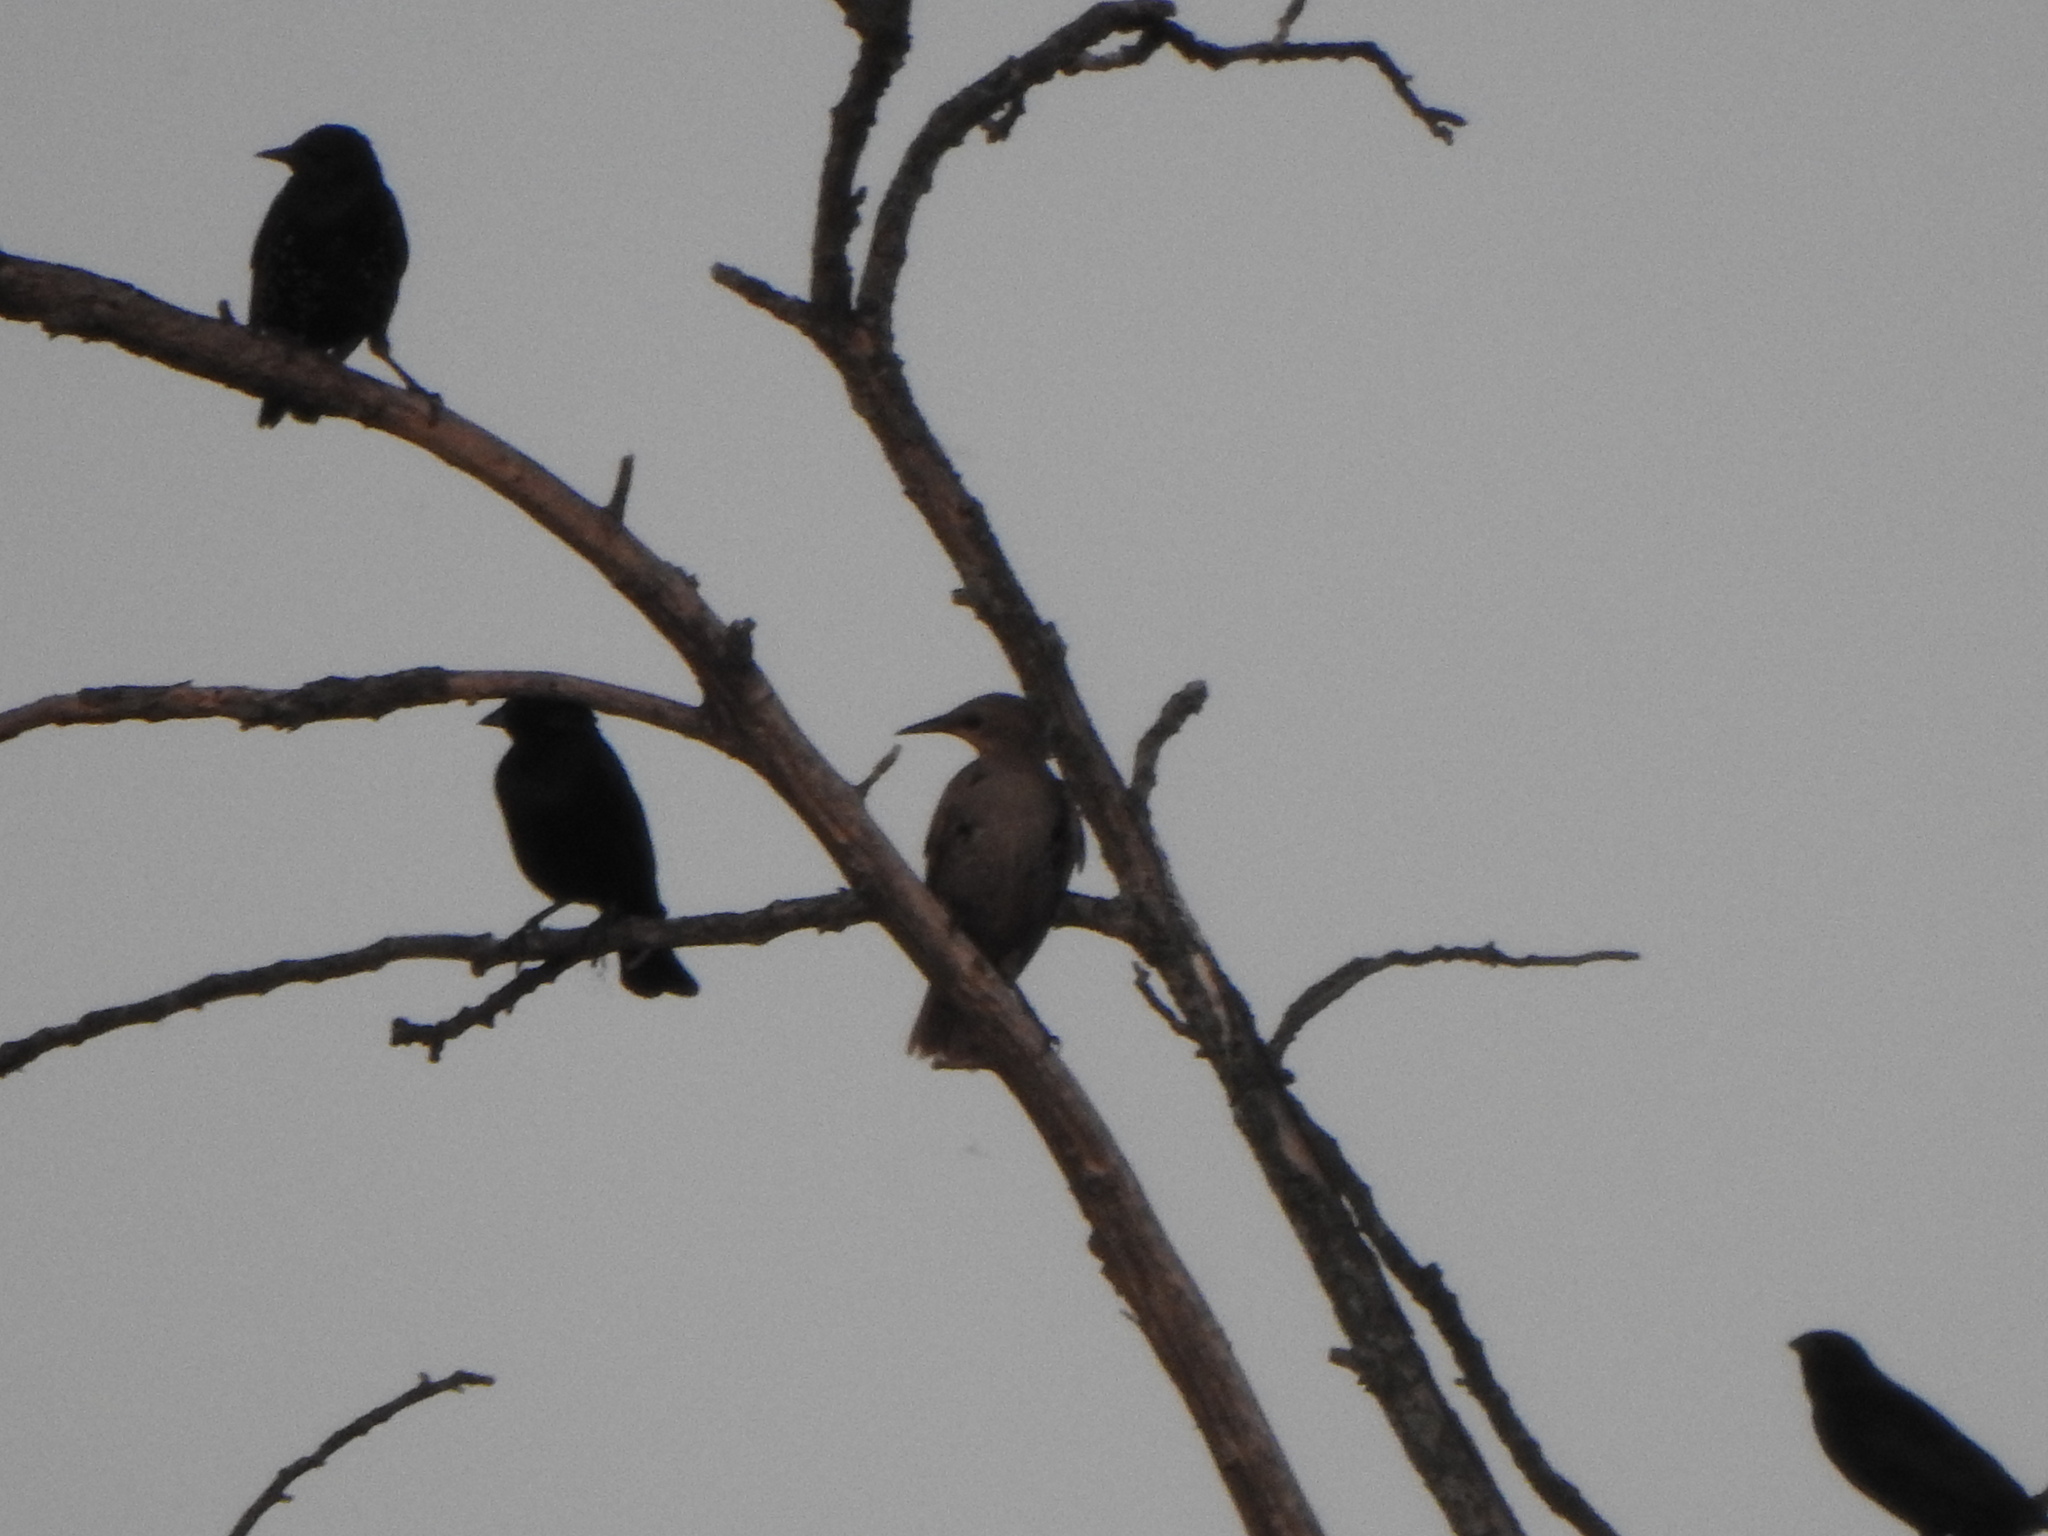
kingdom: Animalia
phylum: Chordata
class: Aves
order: Passeriformes
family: Sturnidae
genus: Sturnus
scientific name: Sturnus vulgaris
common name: Common starling
